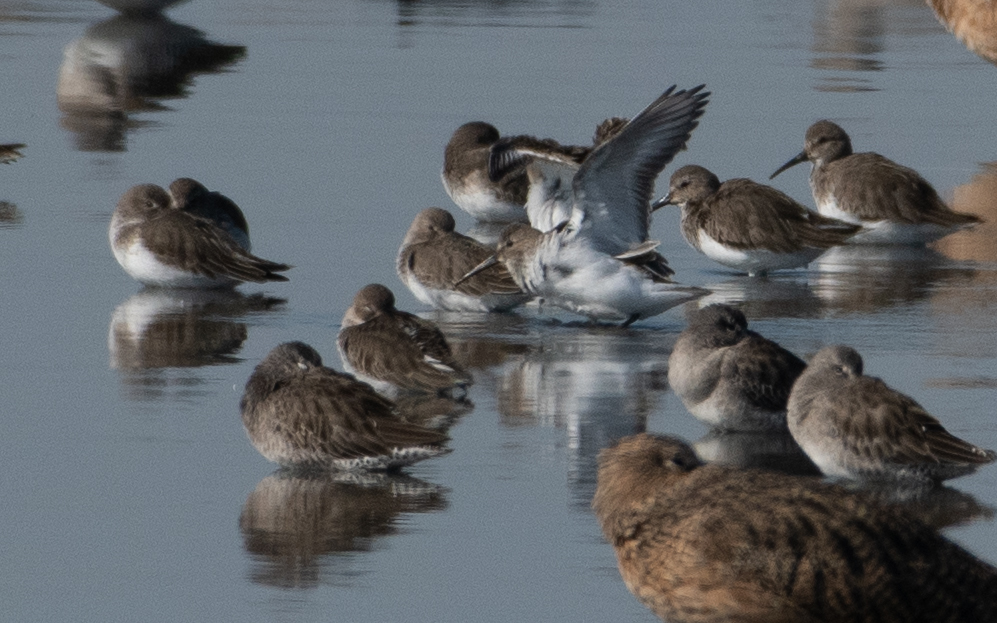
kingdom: Animalia
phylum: Chordata
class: Aves
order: Charadriiformes
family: Scolopacidae
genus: Calidris
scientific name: Calidris alpina
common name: Dunlin
